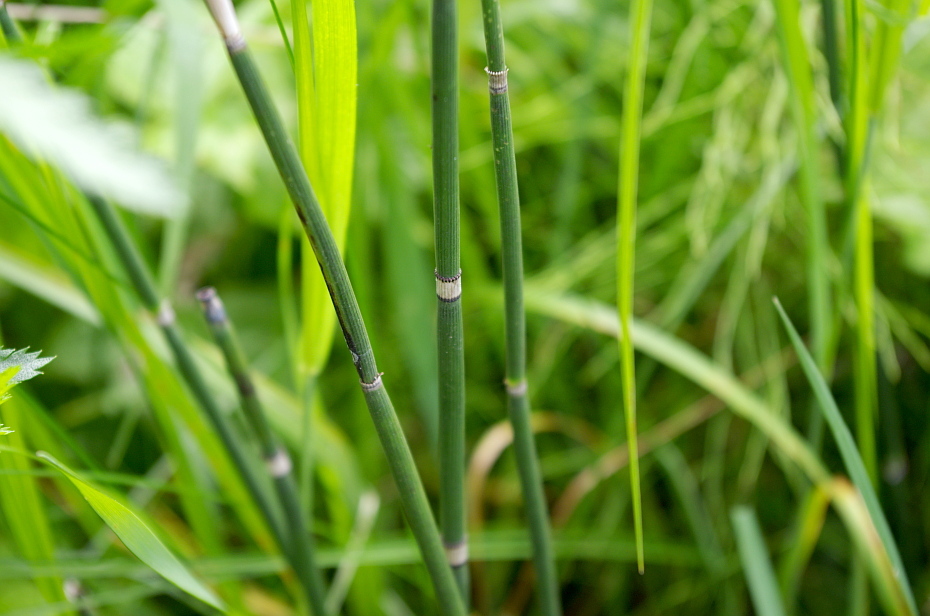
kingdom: Plantae
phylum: Tracheophyta
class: Polypodiopsida
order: Equisetales
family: Equisetaceae
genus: Equisetum
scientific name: Equisetum hyemale
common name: Rough horsetail
